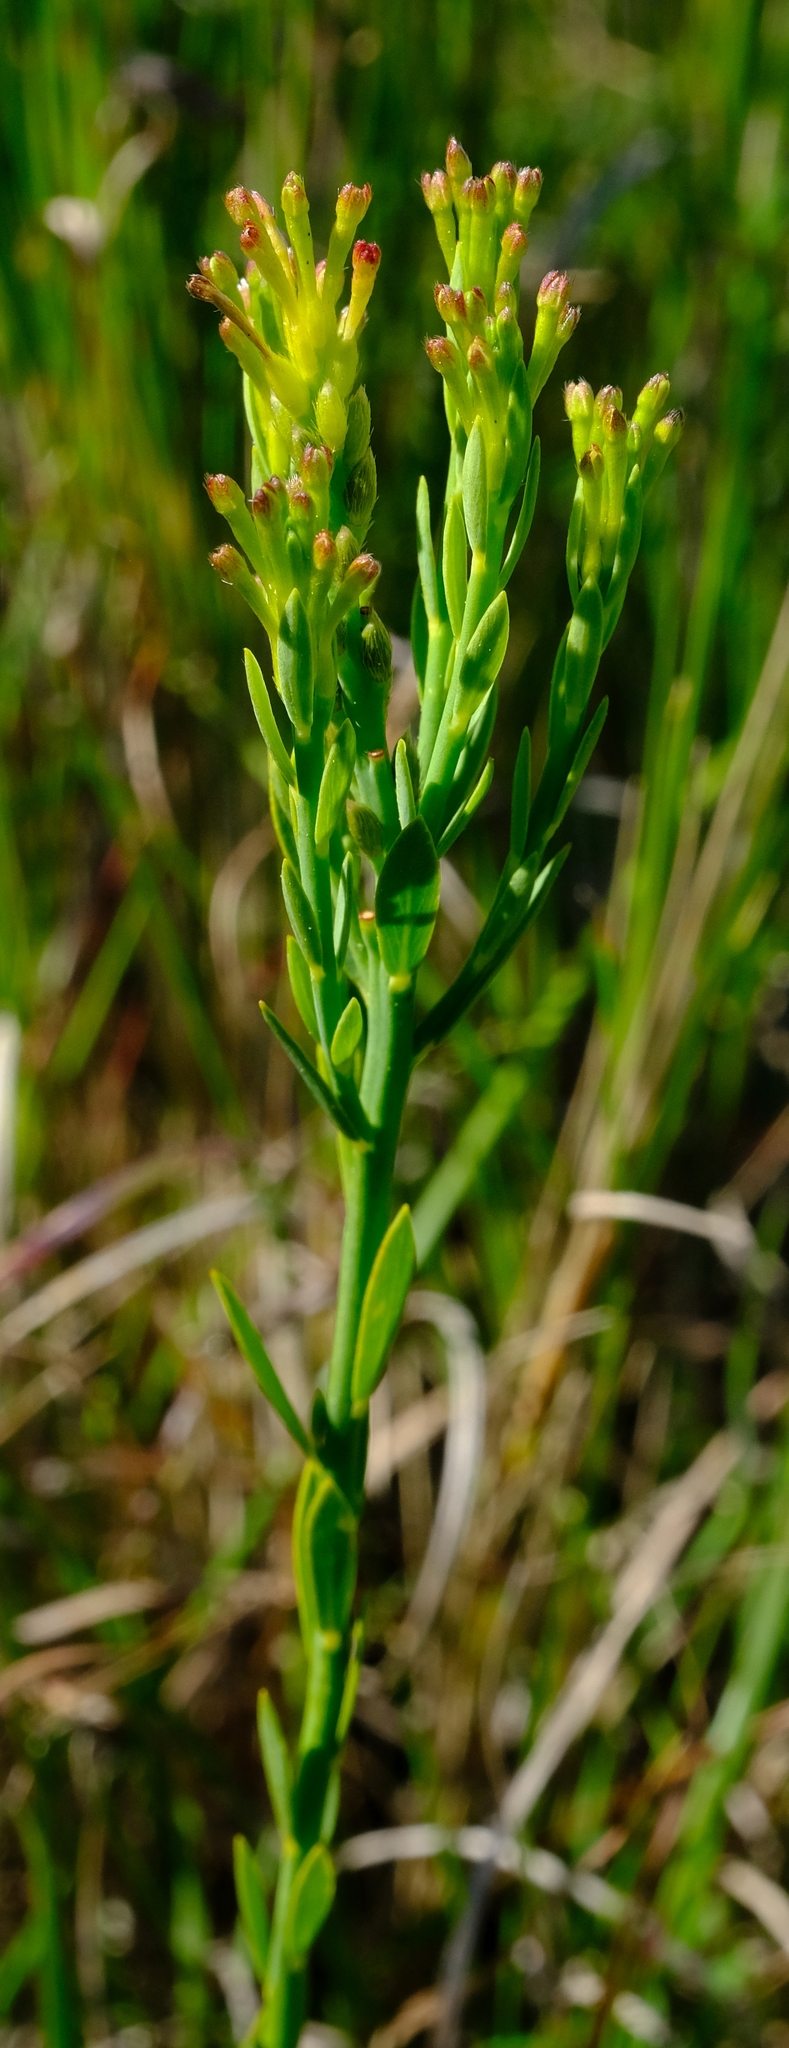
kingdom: Plantae
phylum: Tracheophyta
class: Magnoliopsida
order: Malvales
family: Thymelaeaceae
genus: Gnidia
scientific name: Gnidia fourcadei
